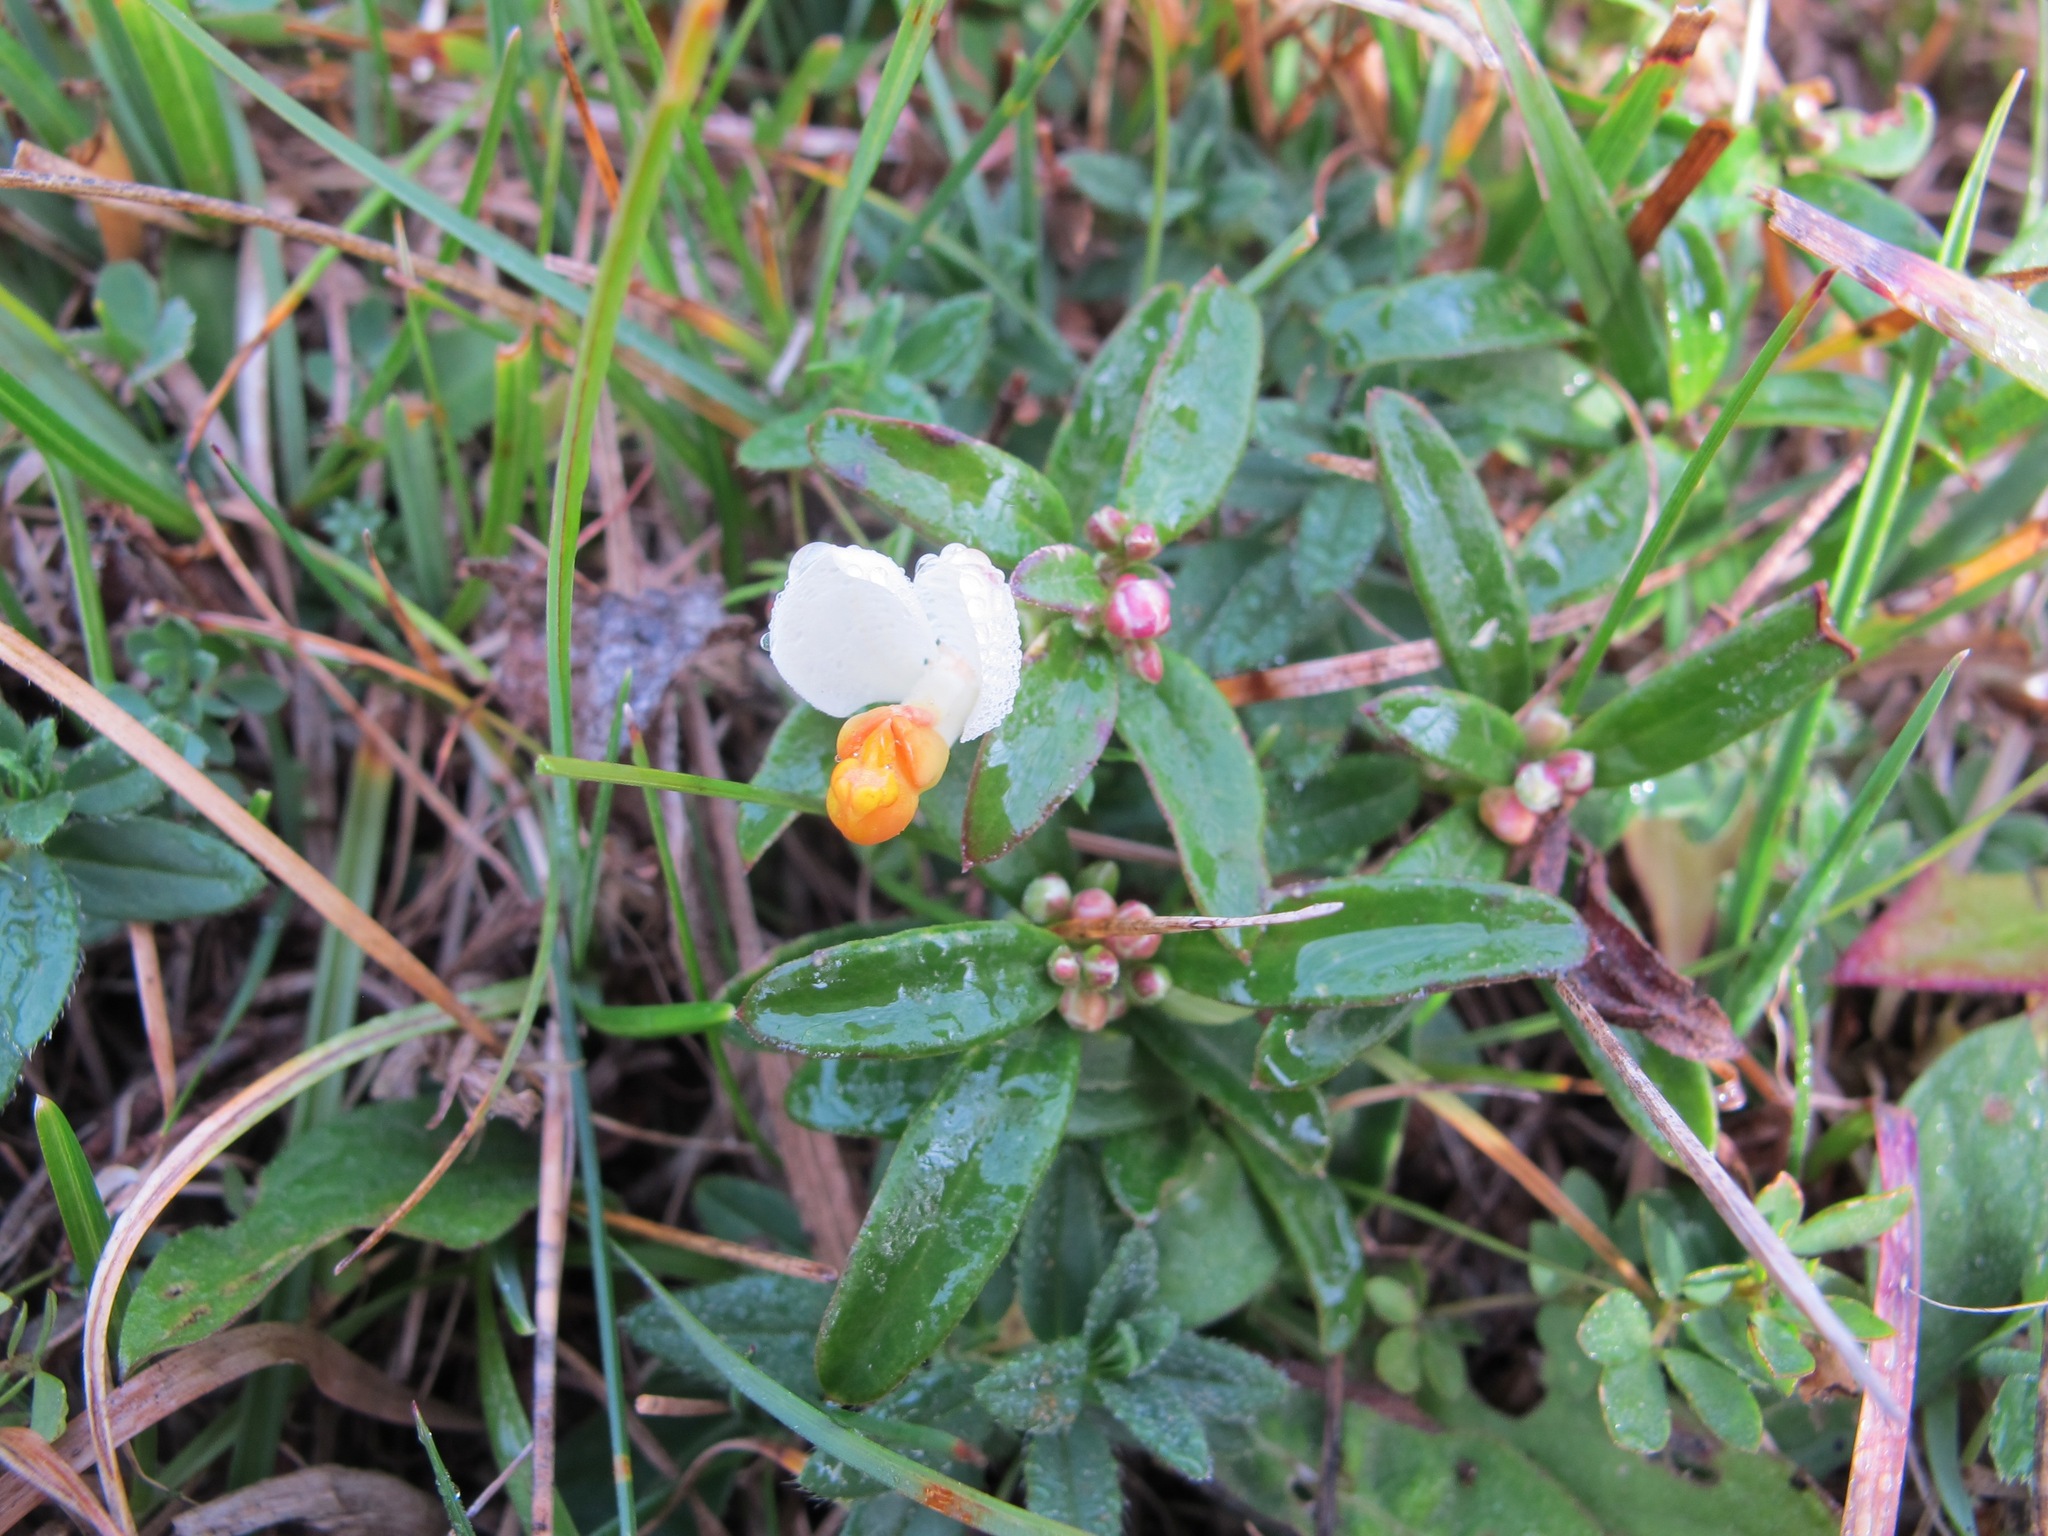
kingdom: Plantae
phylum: Tracheophyta
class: Magnoliopsida
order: Fabales
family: Polygalaceae
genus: Polygaloides
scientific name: Polygaloides chamaebuxus
